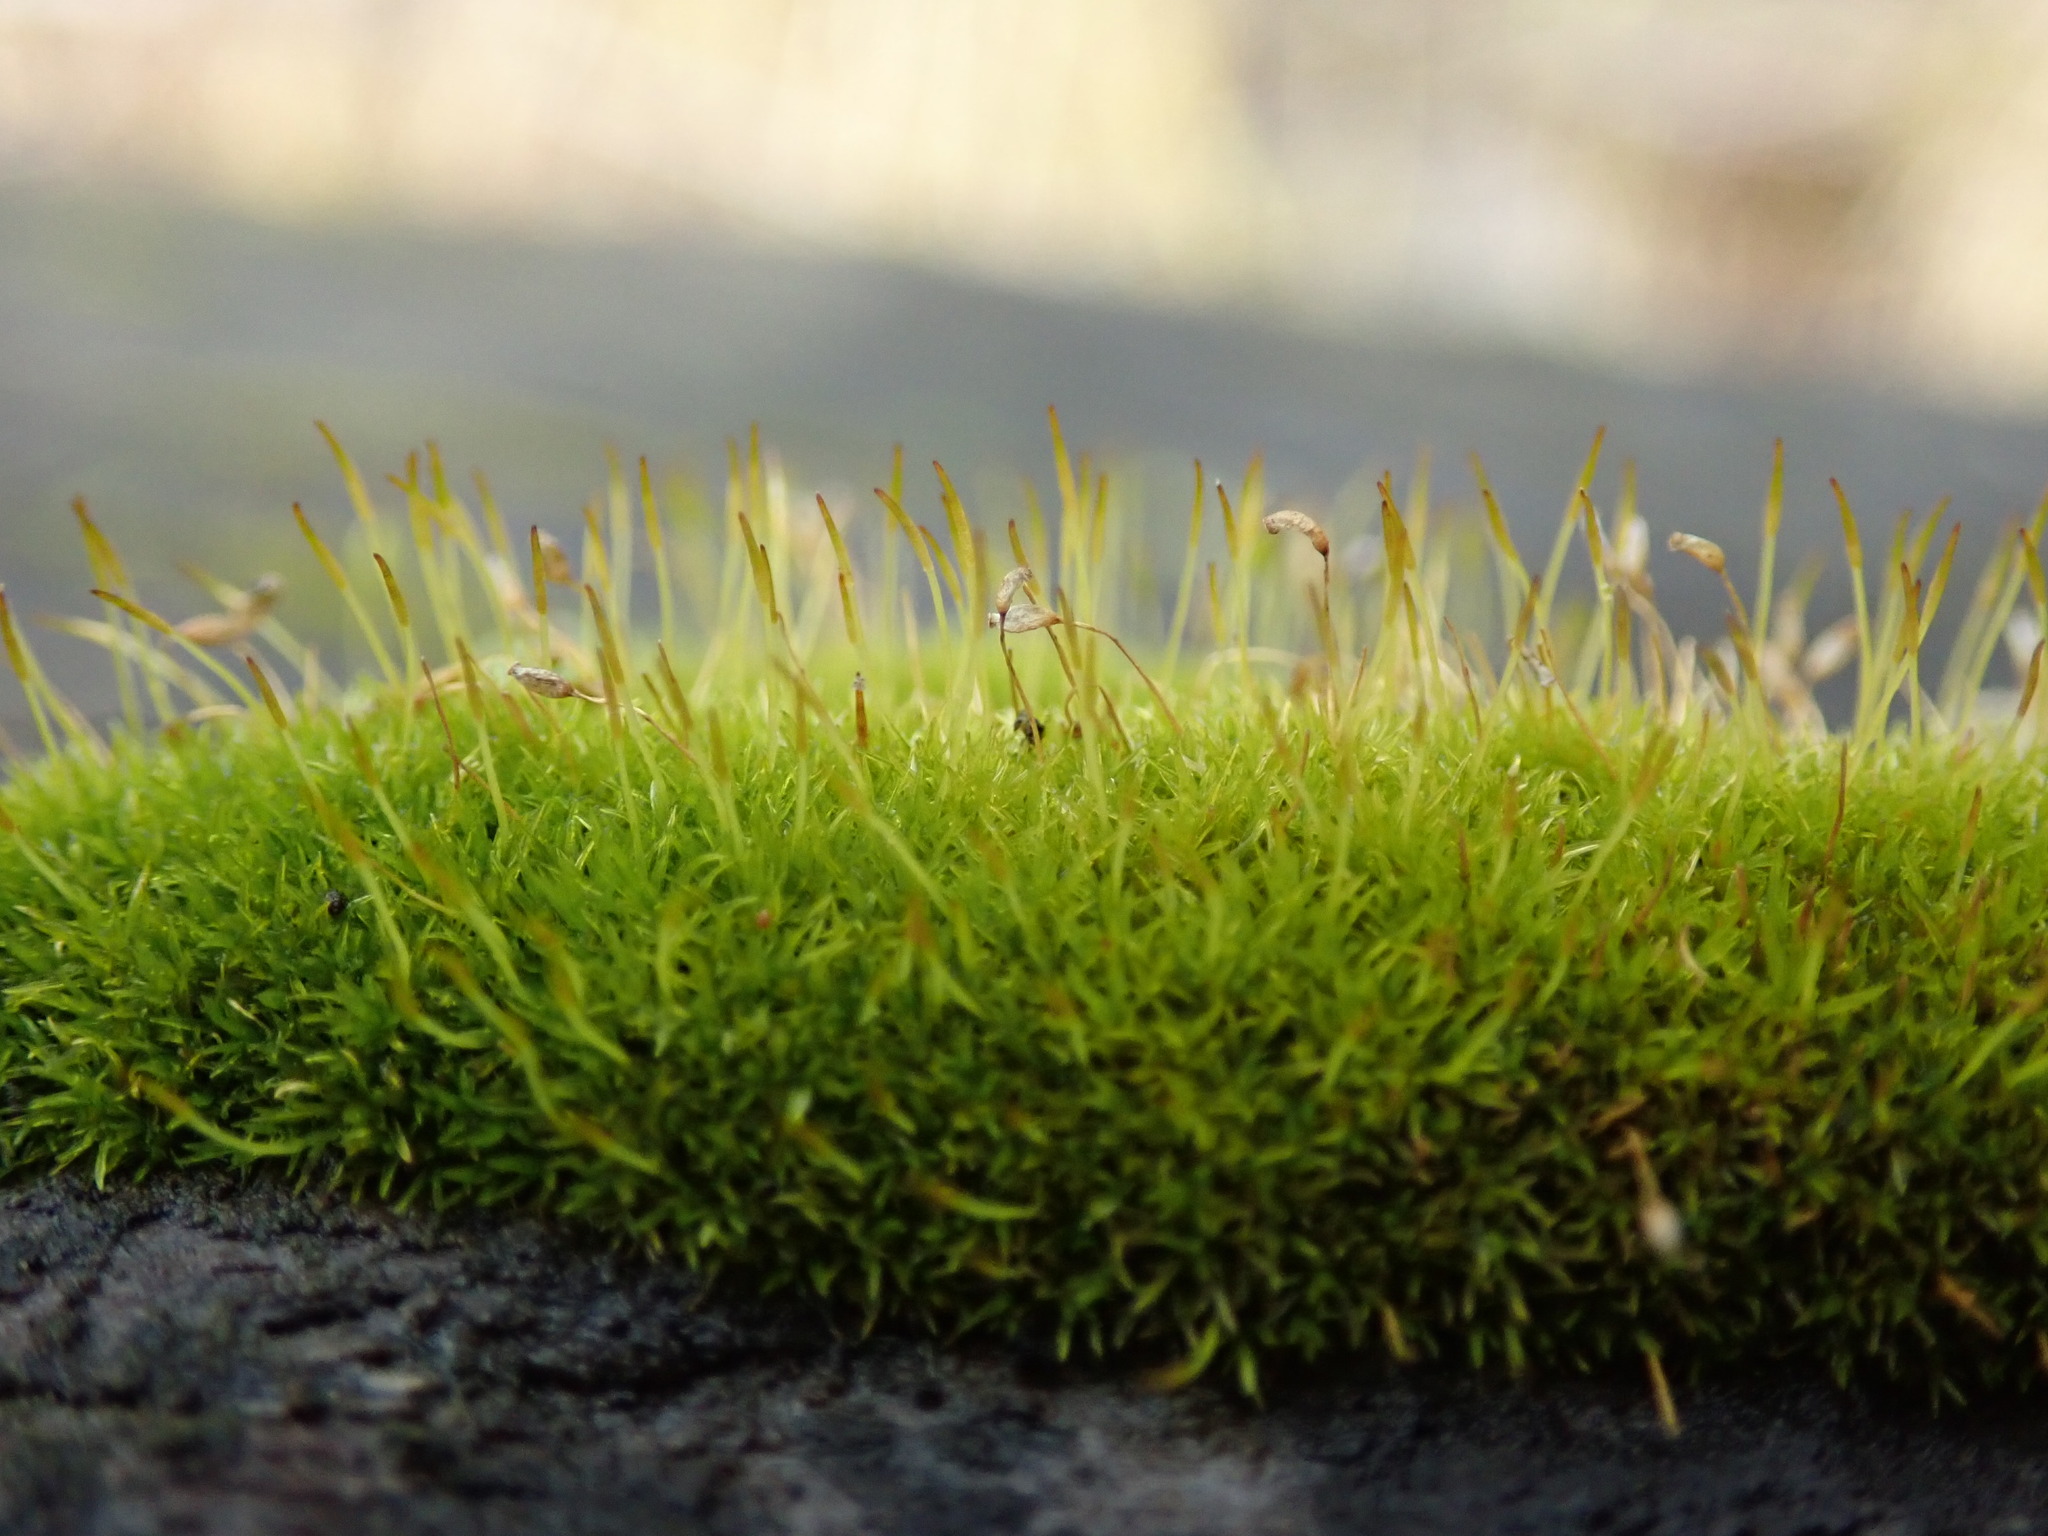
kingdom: Plantae
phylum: Bryophyta
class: Bryopsida
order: Dicranales
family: Rhabdoweisiaceae
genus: Dicranoweisia
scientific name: Dicranoweisia cirrata
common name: Common pincushion
